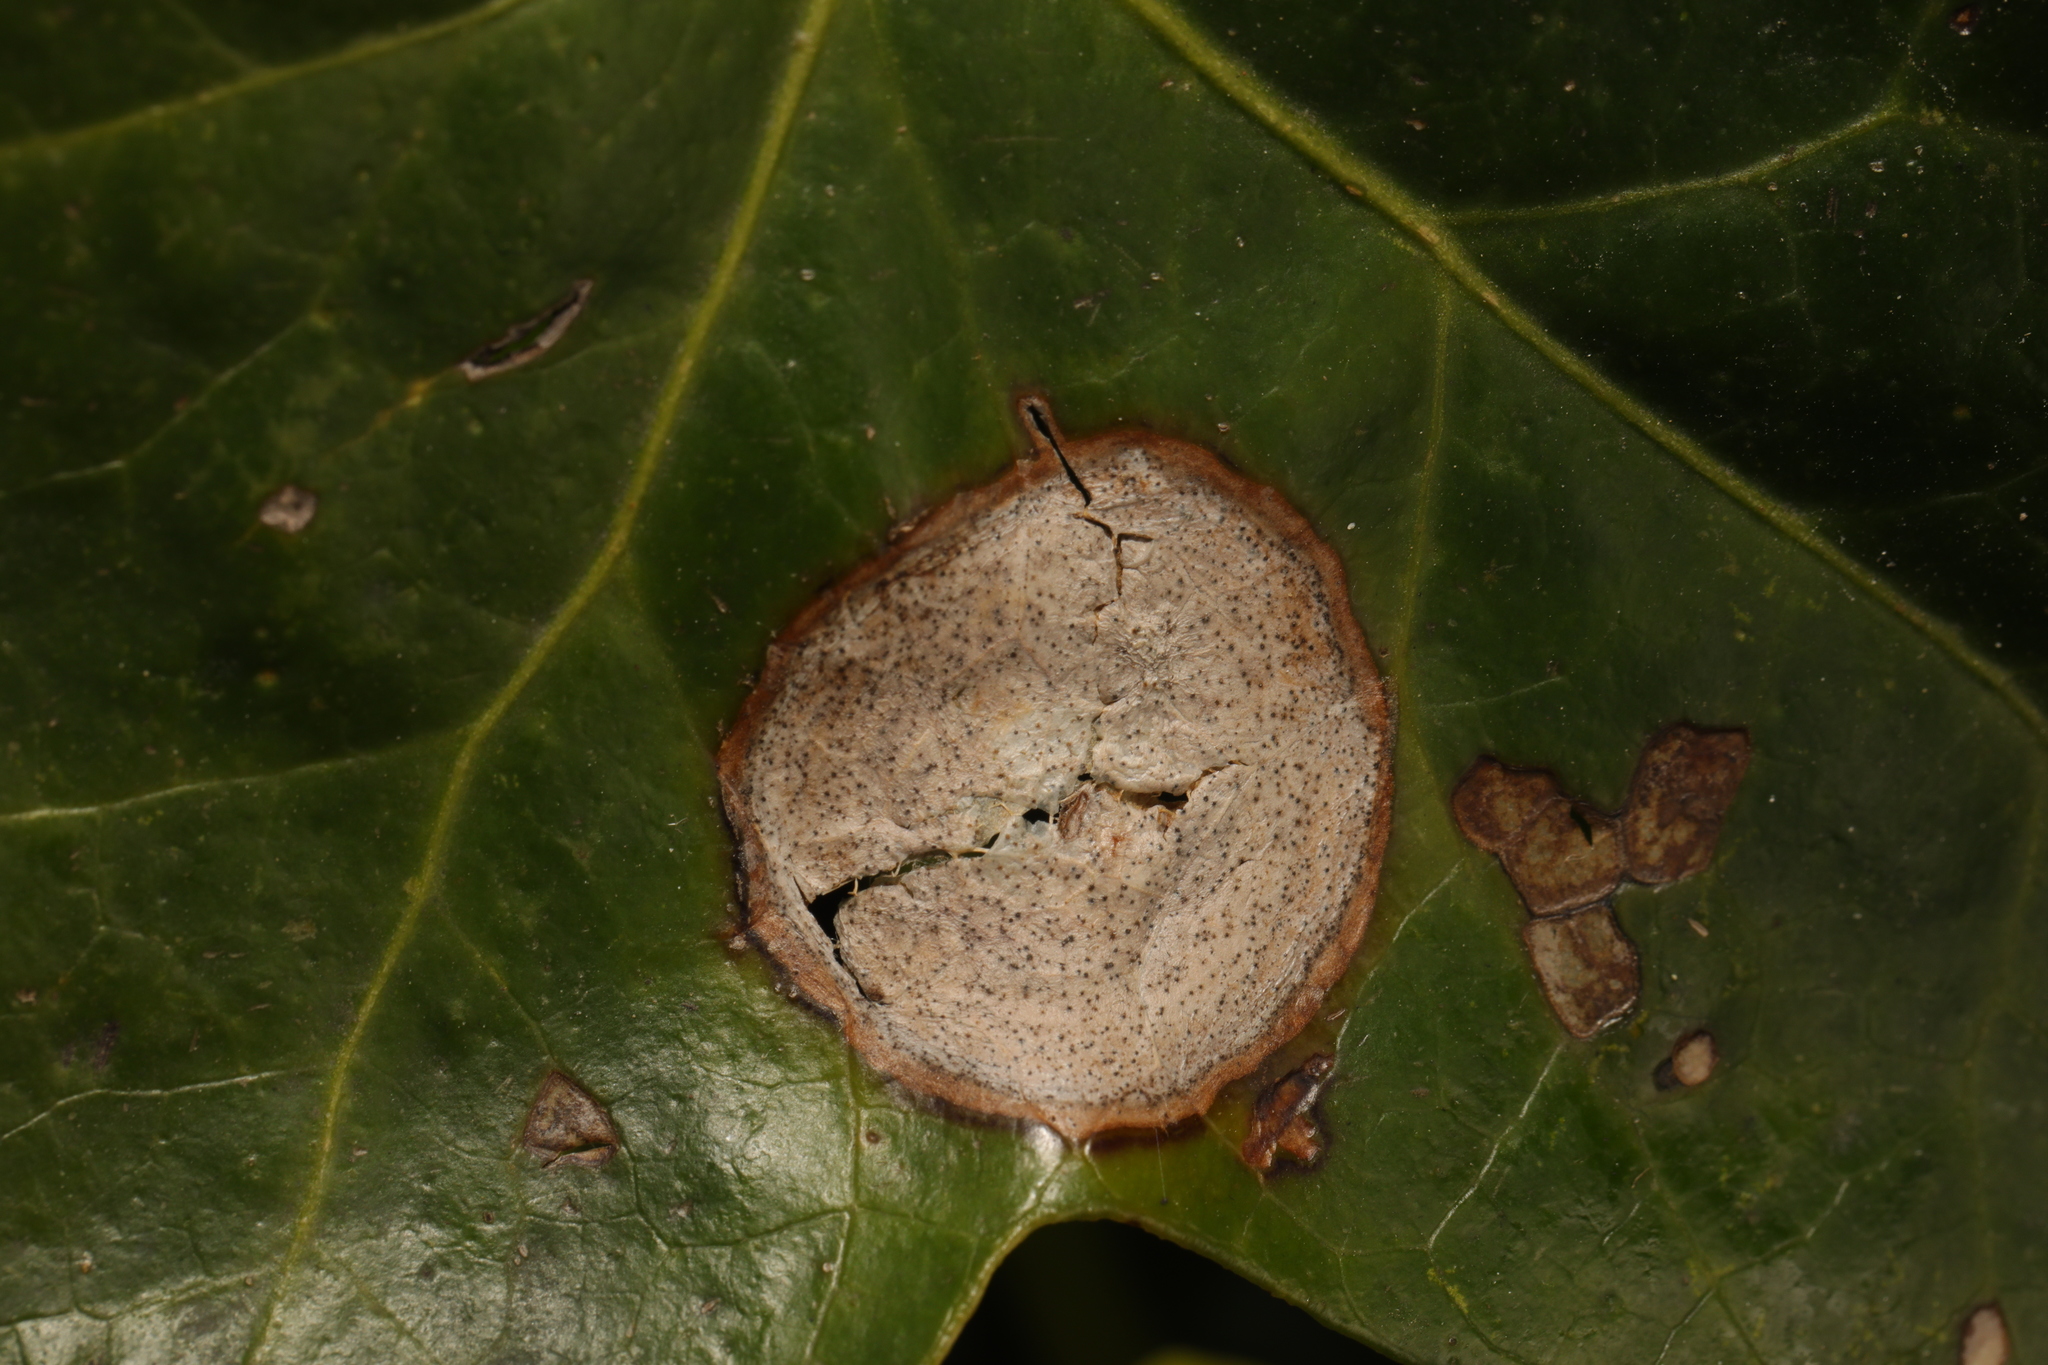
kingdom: Fungi
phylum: Ascomycota
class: Dothideomycetes
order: Pleosporales
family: Didymellaceae
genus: Boeremia
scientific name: Boeremia hedericola
